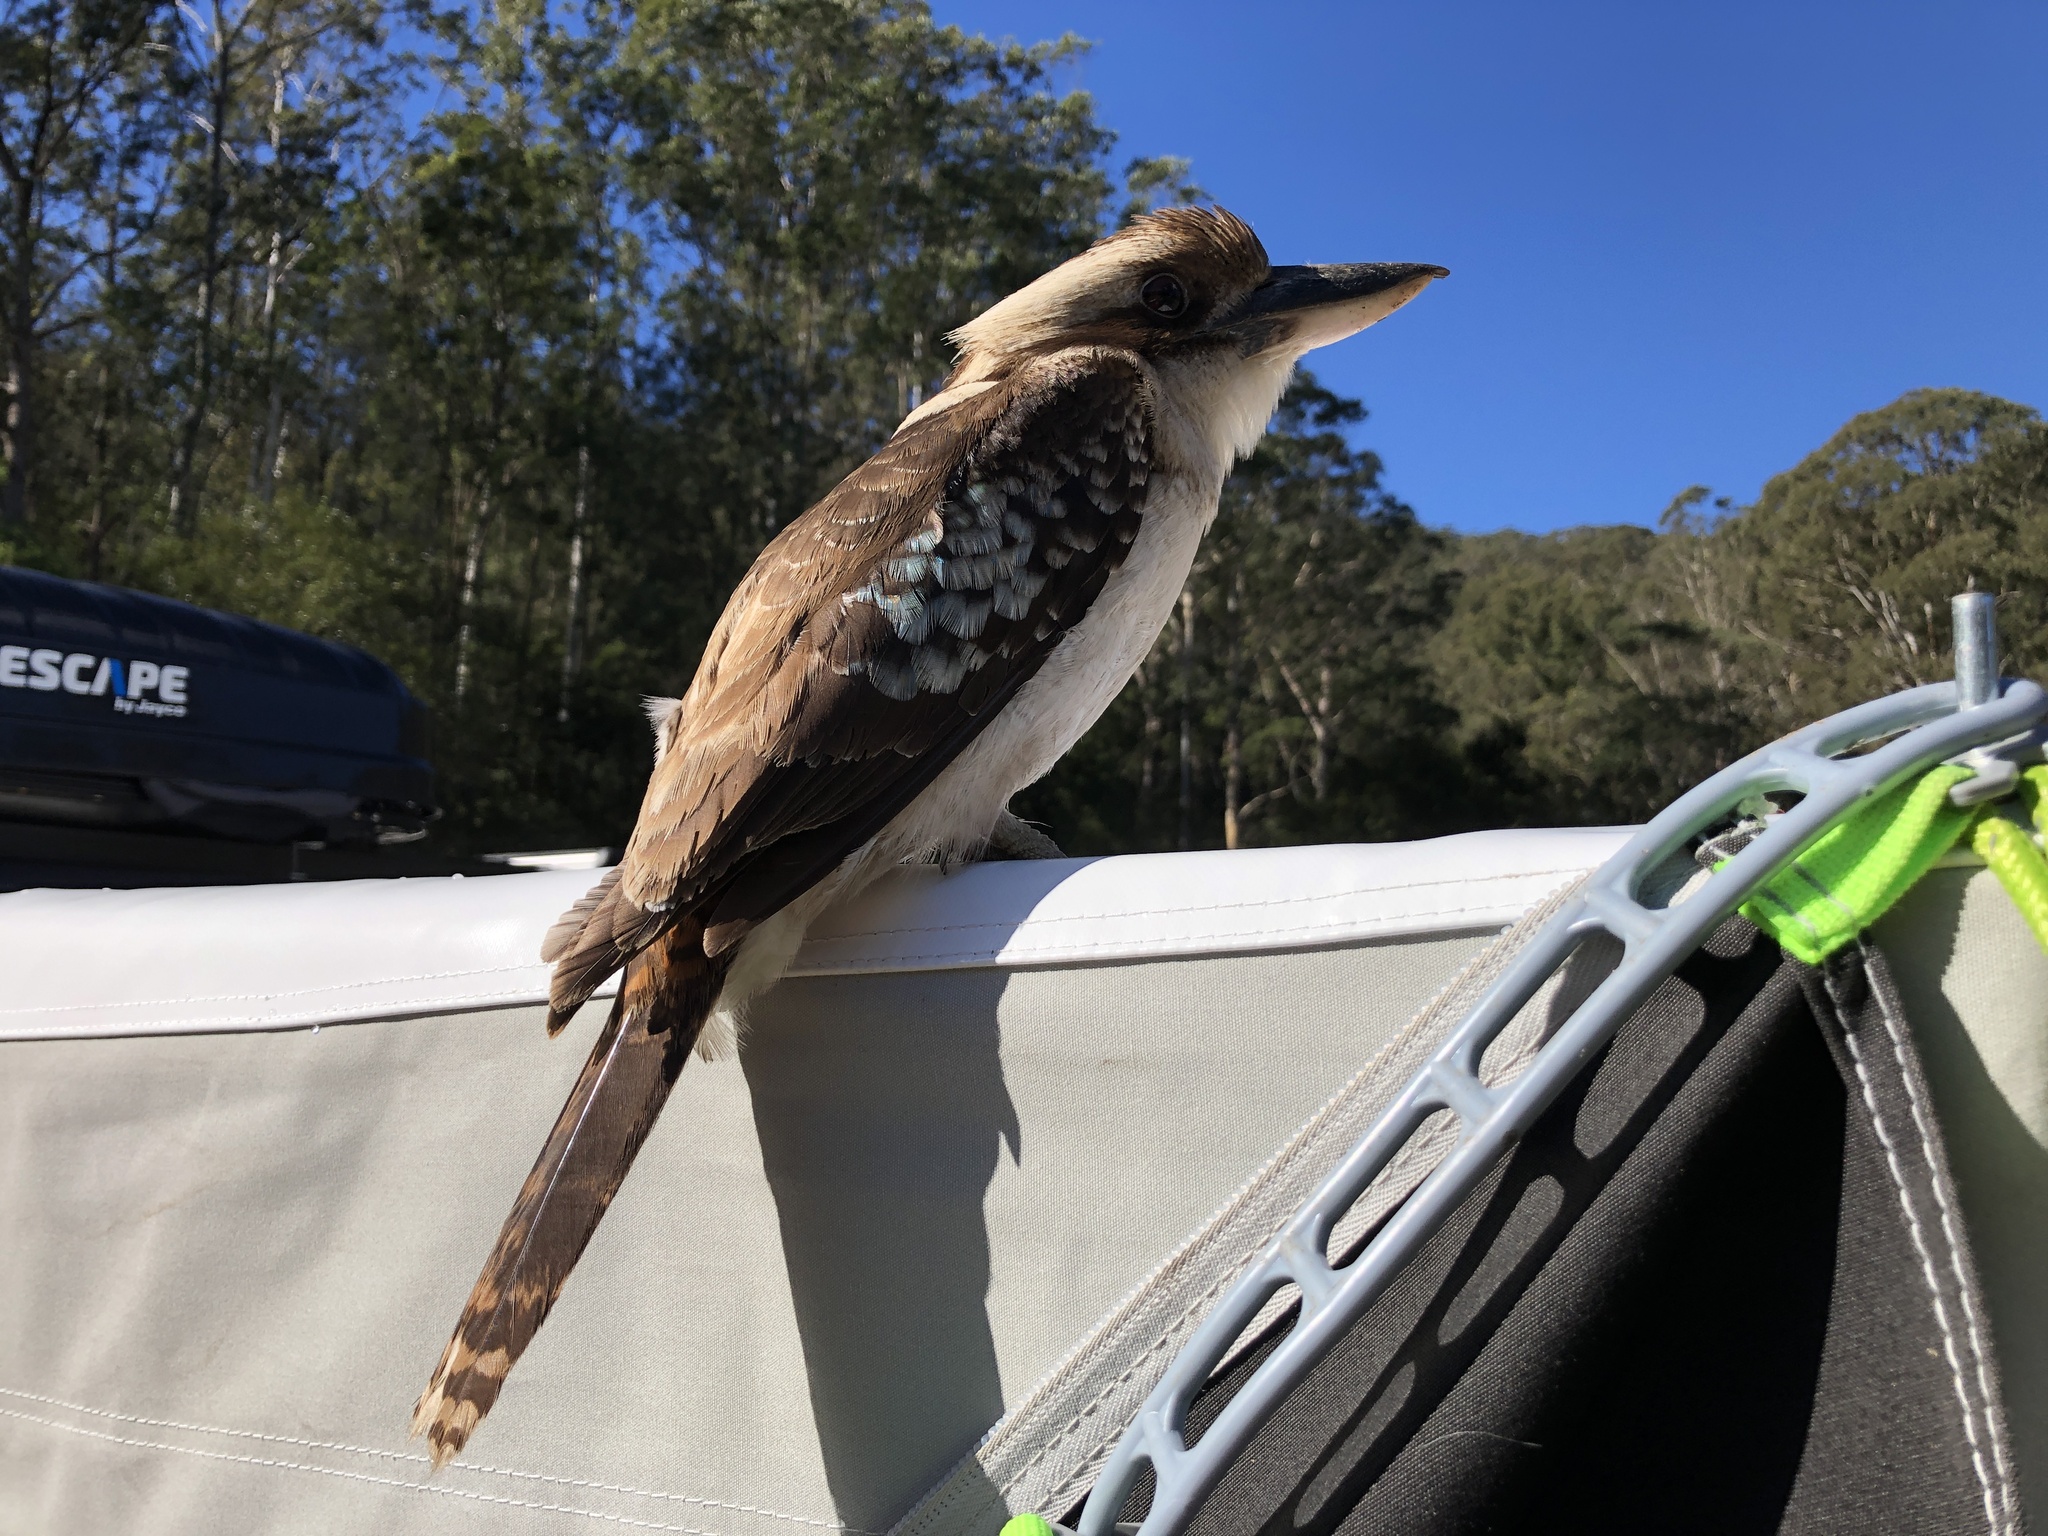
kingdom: Animalia
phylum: Chordata
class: Aves
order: Coraciiformes
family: Alcedinidae
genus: Dacelo
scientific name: Dacelo novaeguineae
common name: Laughing kookaburra
